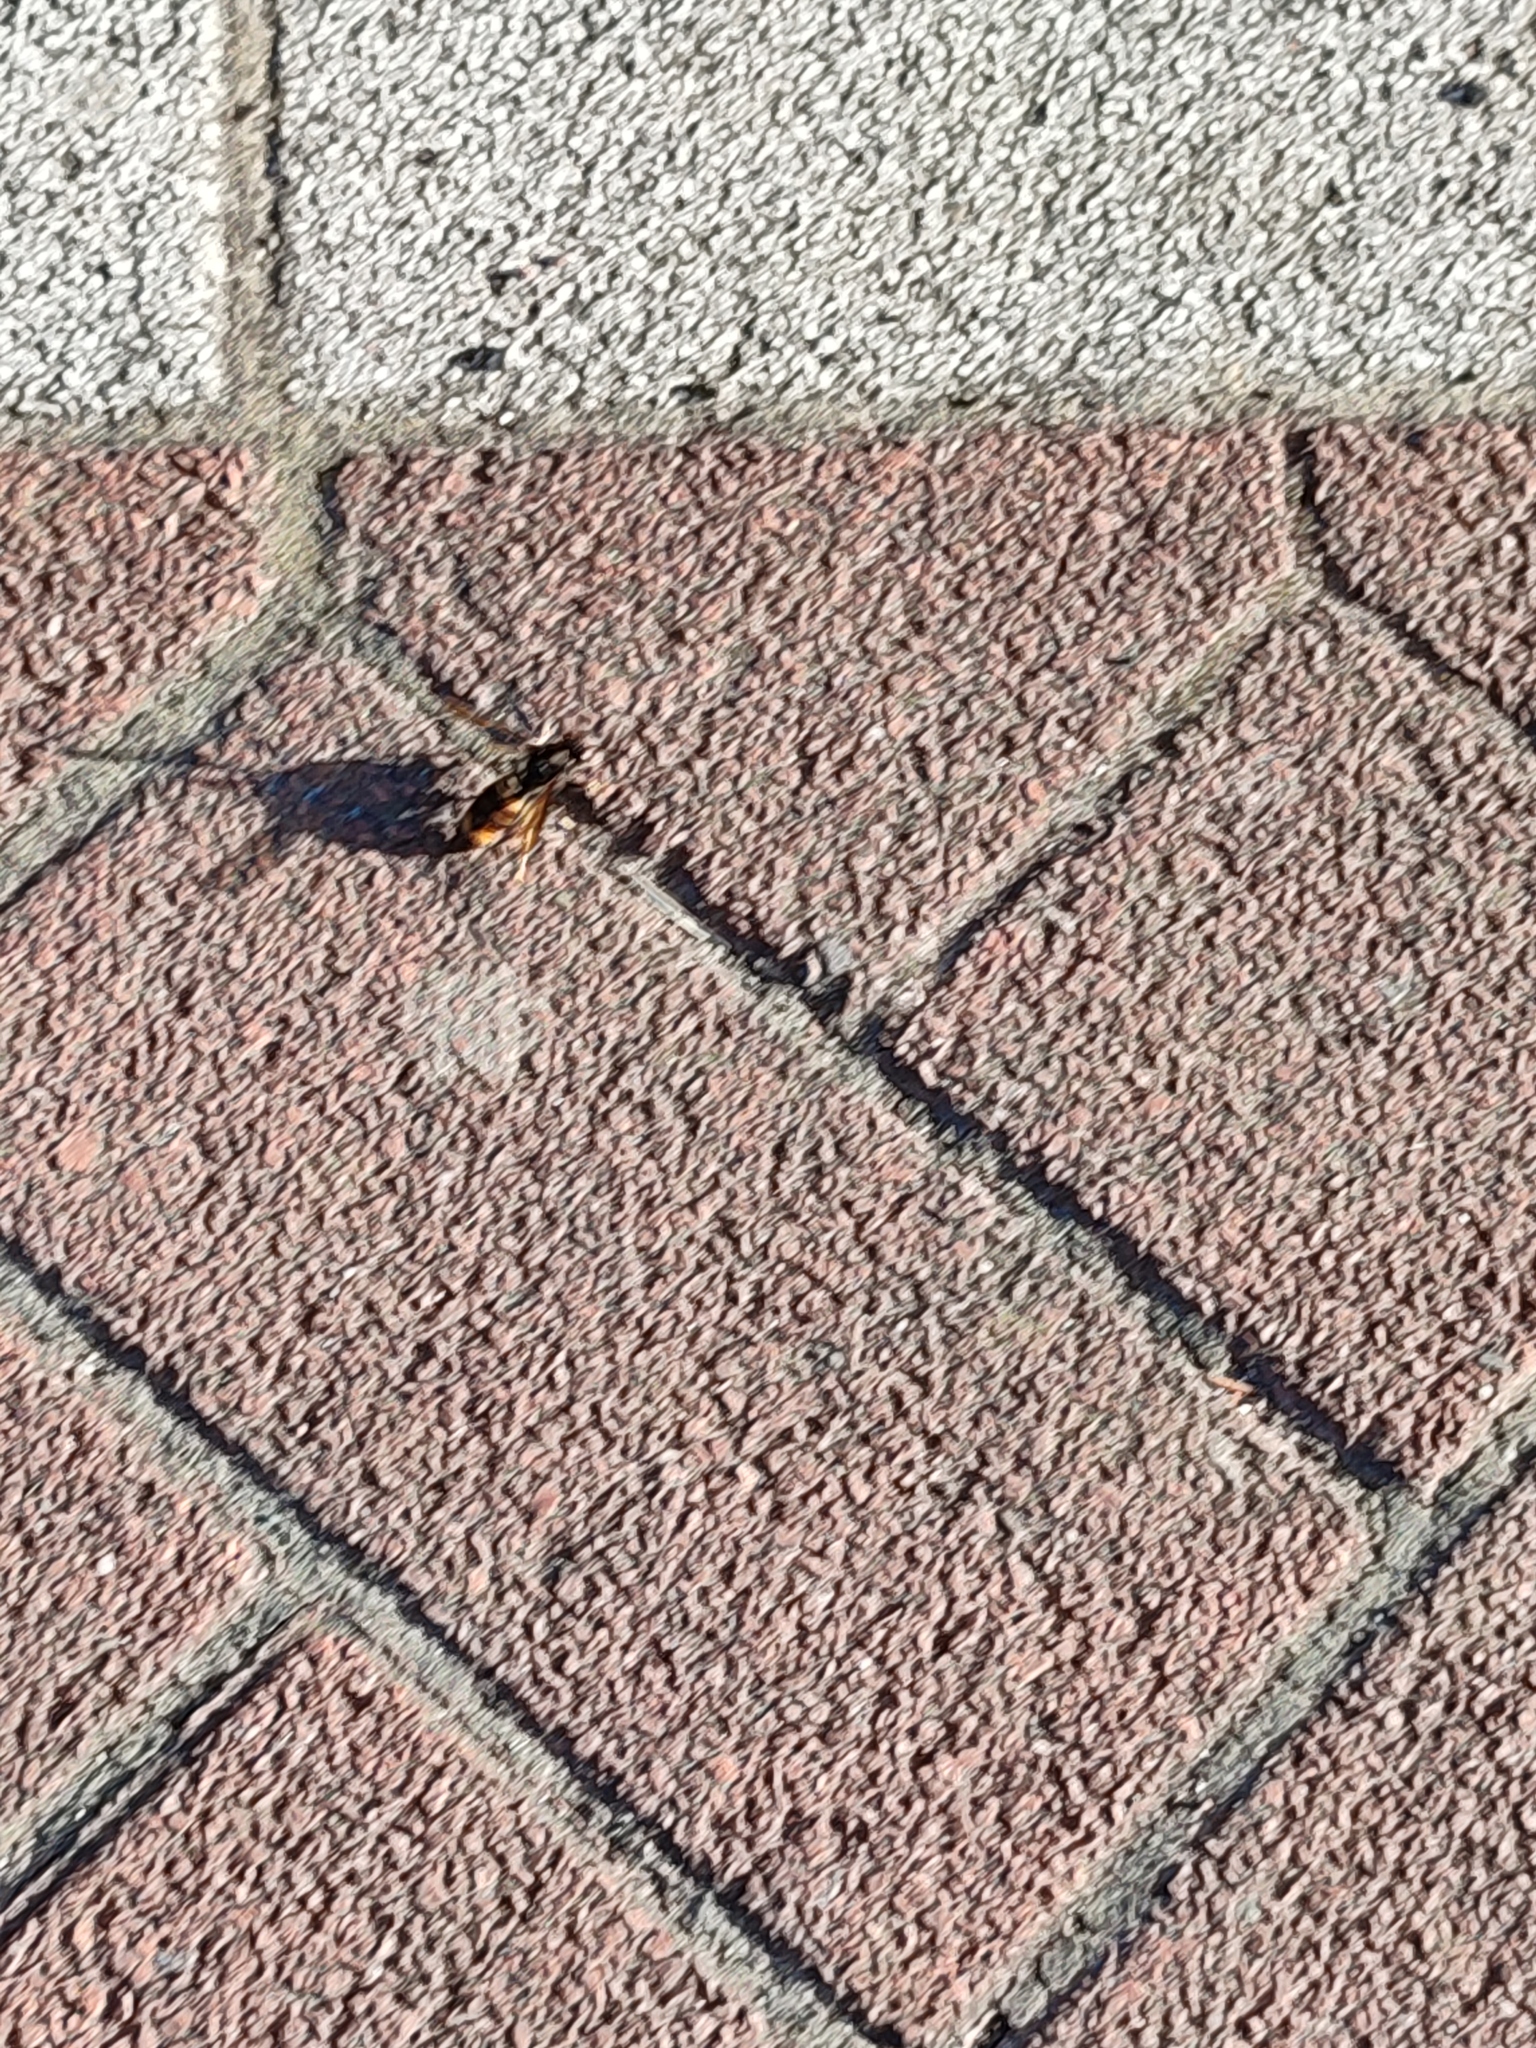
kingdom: Animalia
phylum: Arthropoda
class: Insecta
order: Hymenoptera
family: Vespidae
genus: Vespa
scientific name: Vespa velutina
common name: Asian hornet
